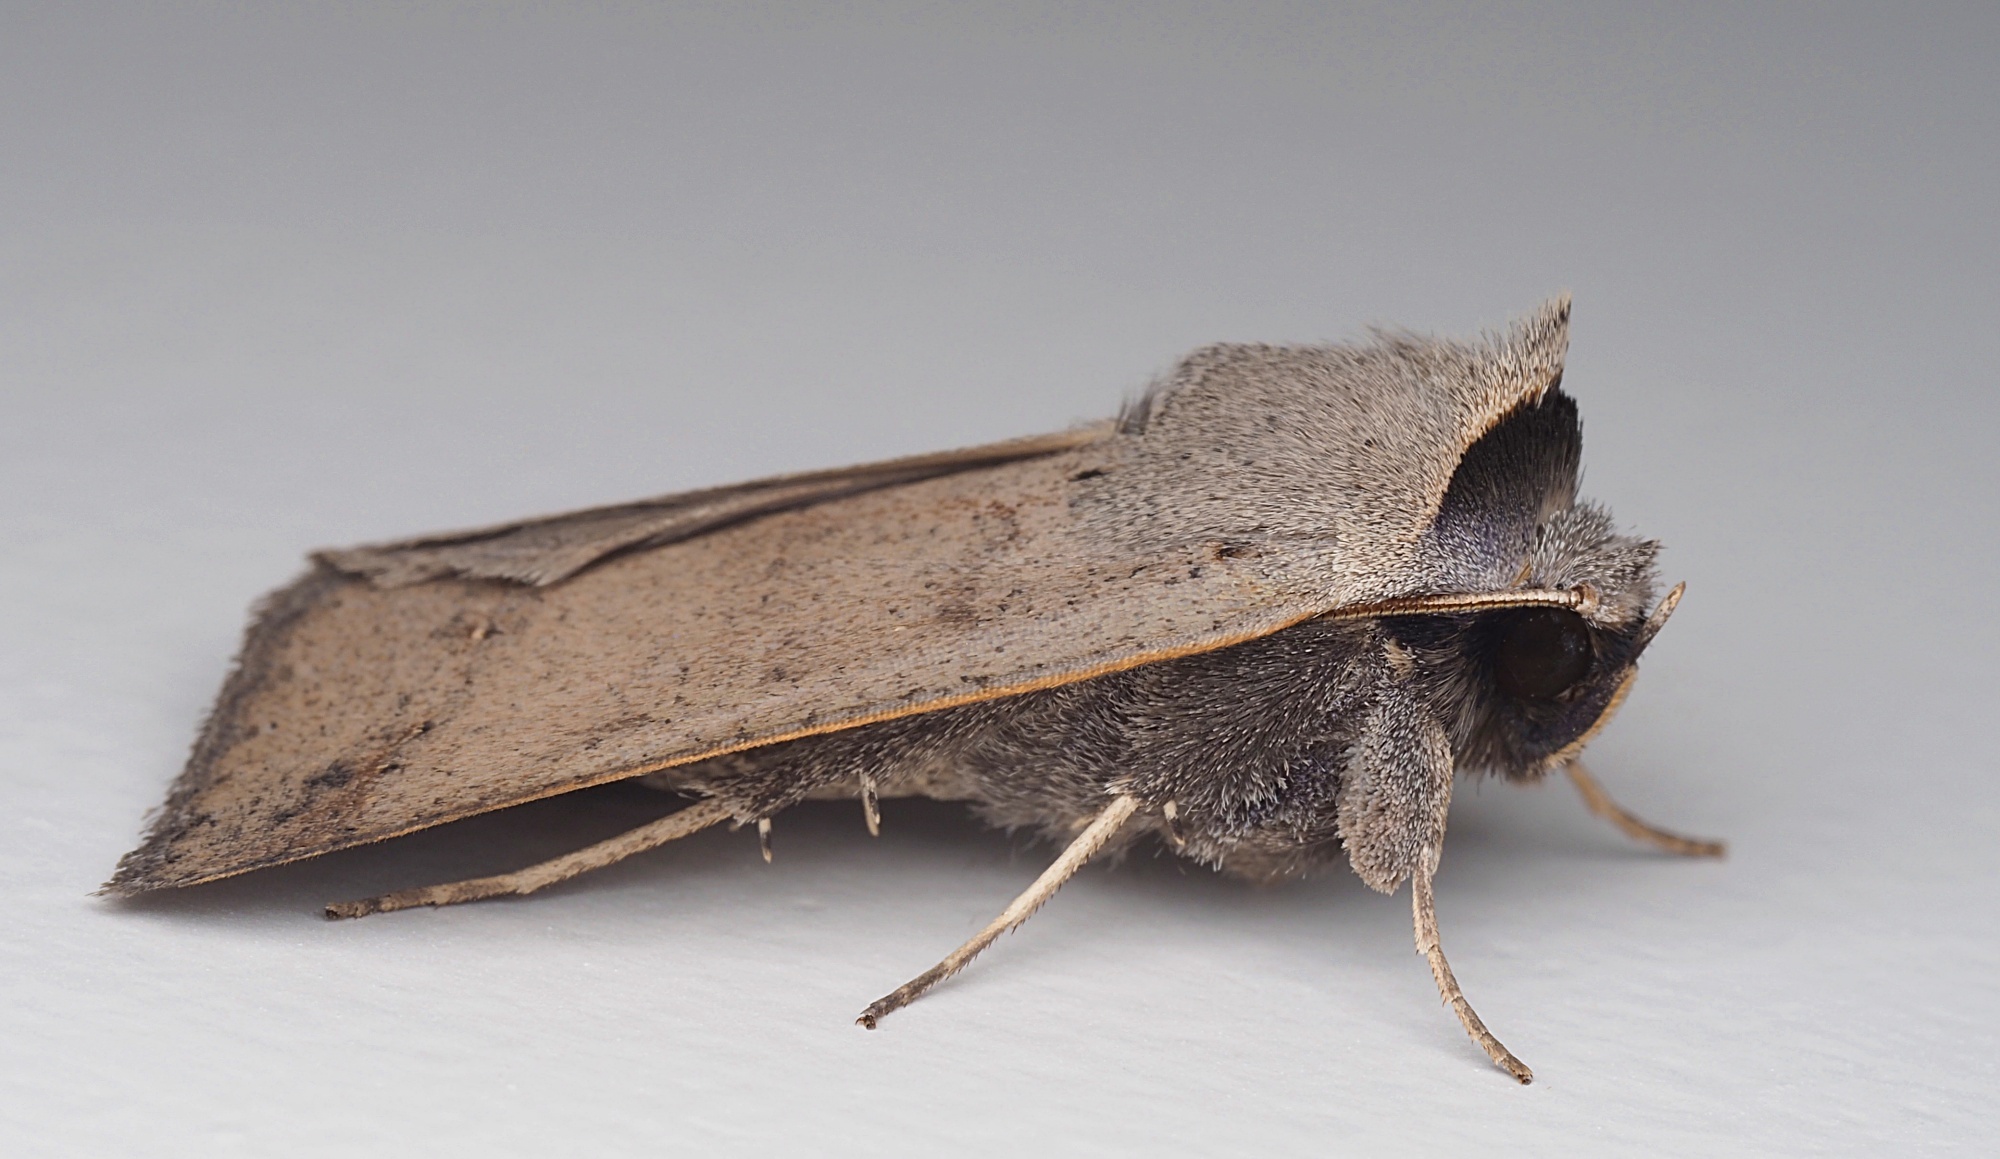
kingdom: Animalia
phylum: Arthropoda
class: Insecta
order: Lepidoptera
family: Erebidae
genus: Pantydia
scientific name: Pantydia sparsa
